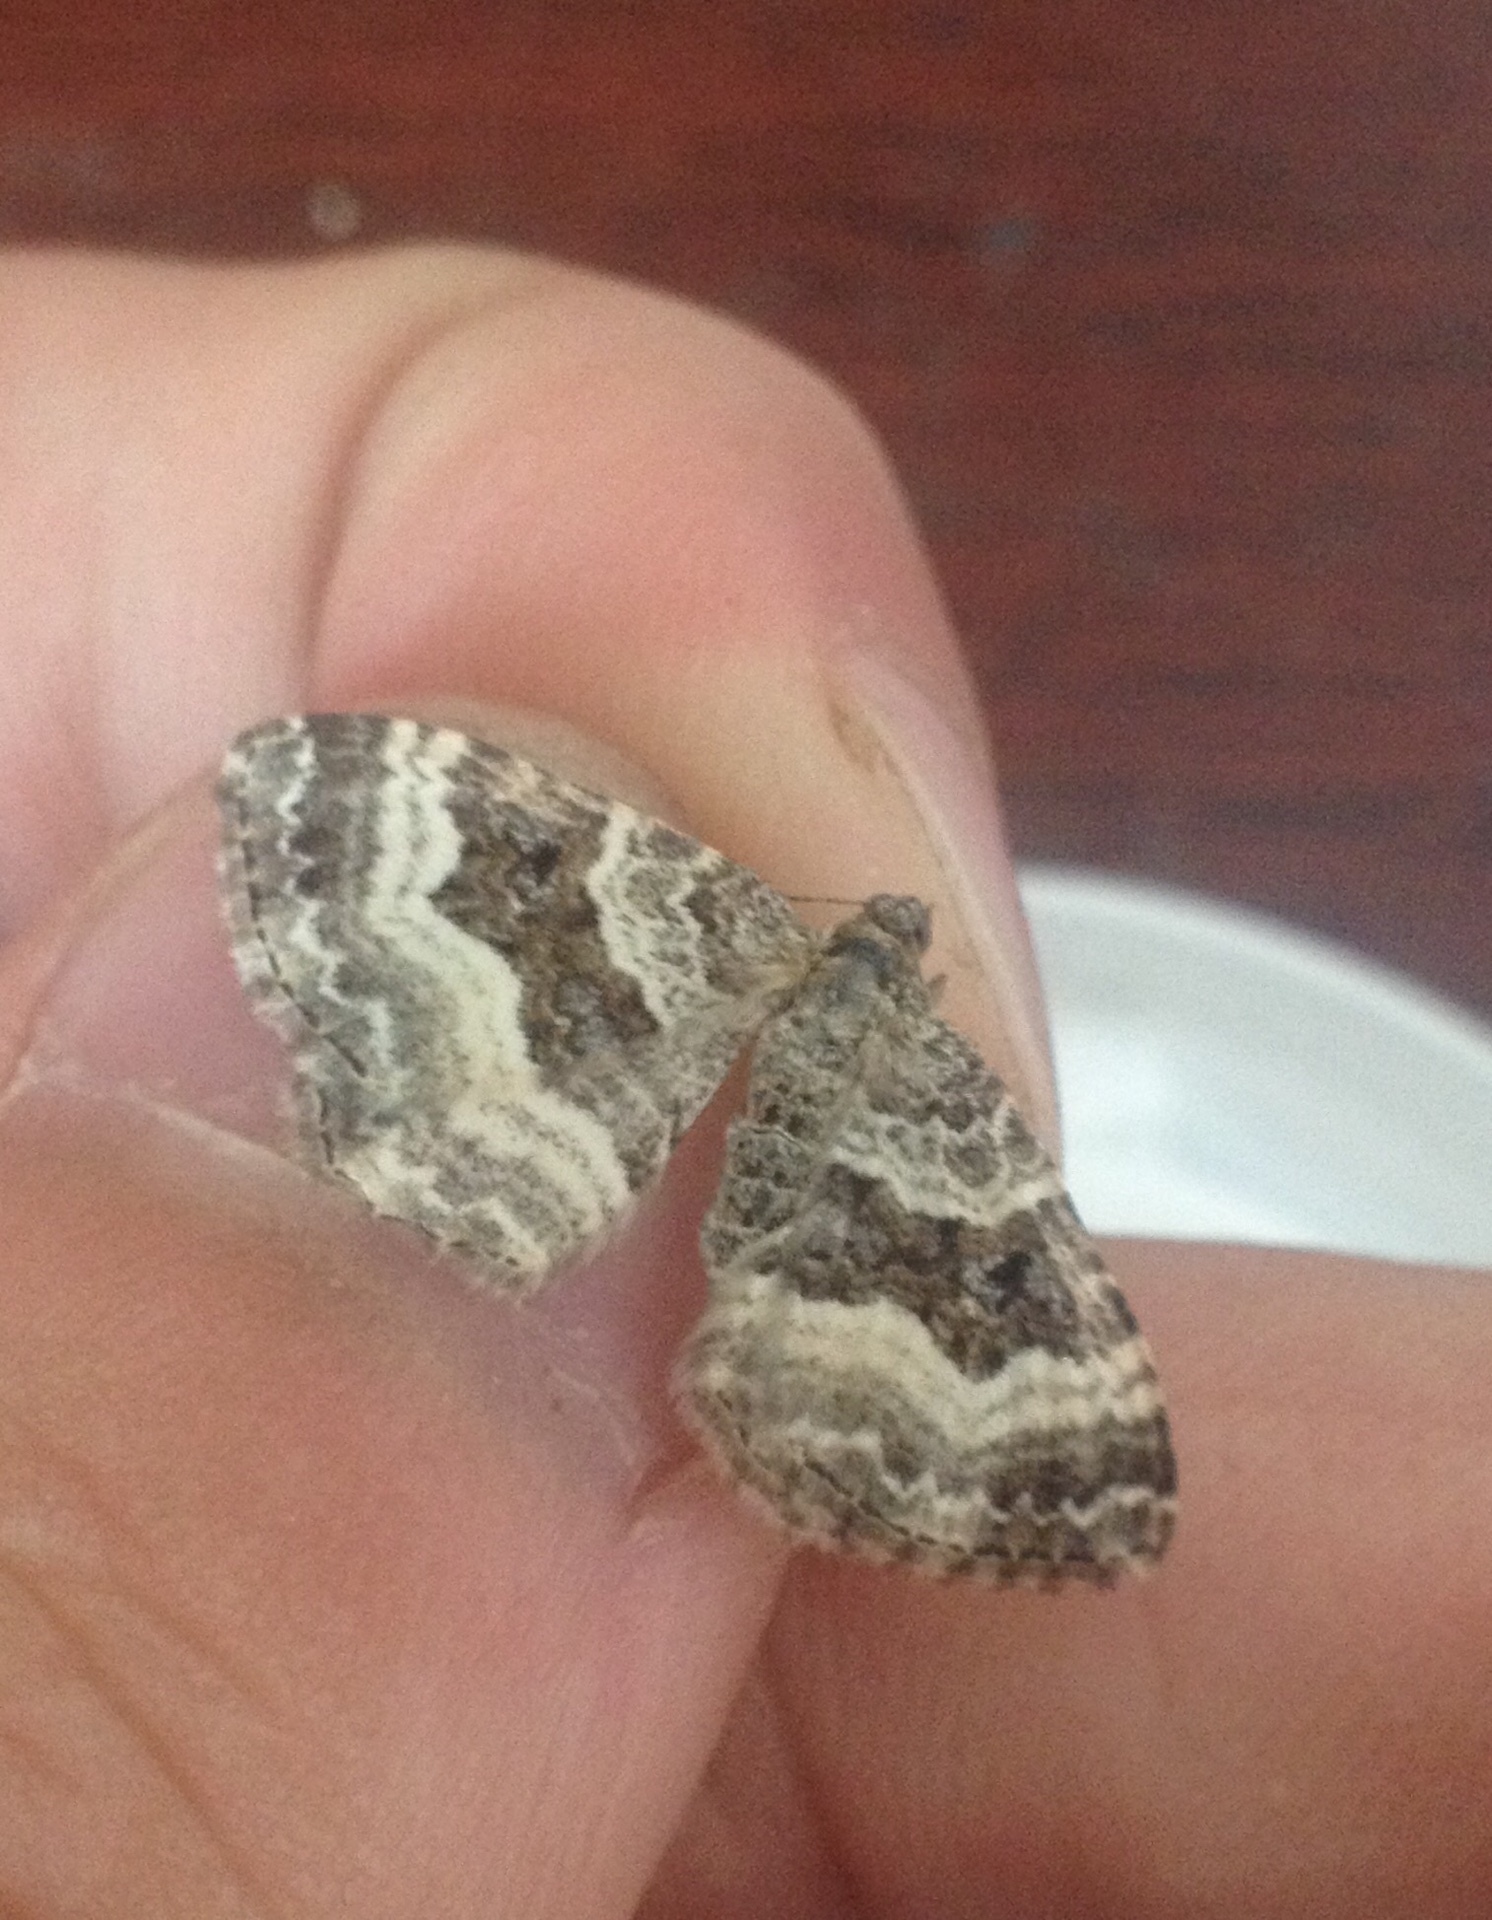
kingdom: Animalia
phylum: Arthropoda
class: Insecta
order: Lepidoptera
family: Geometridae
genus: Epirrhoe
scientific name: Epirrhoe alternata
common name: Common carpet
